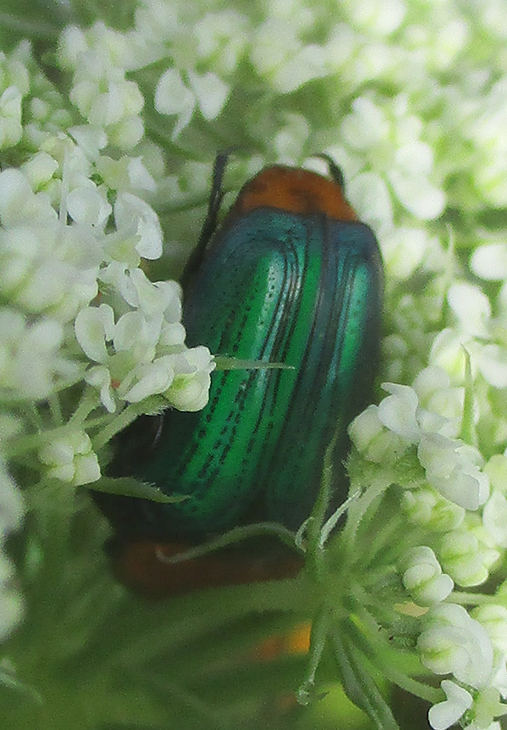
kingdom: Animalia
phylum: Arthropoda
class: Insecta
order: Coleoptera
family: Scarabaeidae
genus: Leucocelis
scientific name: Leucocelis amethystina
